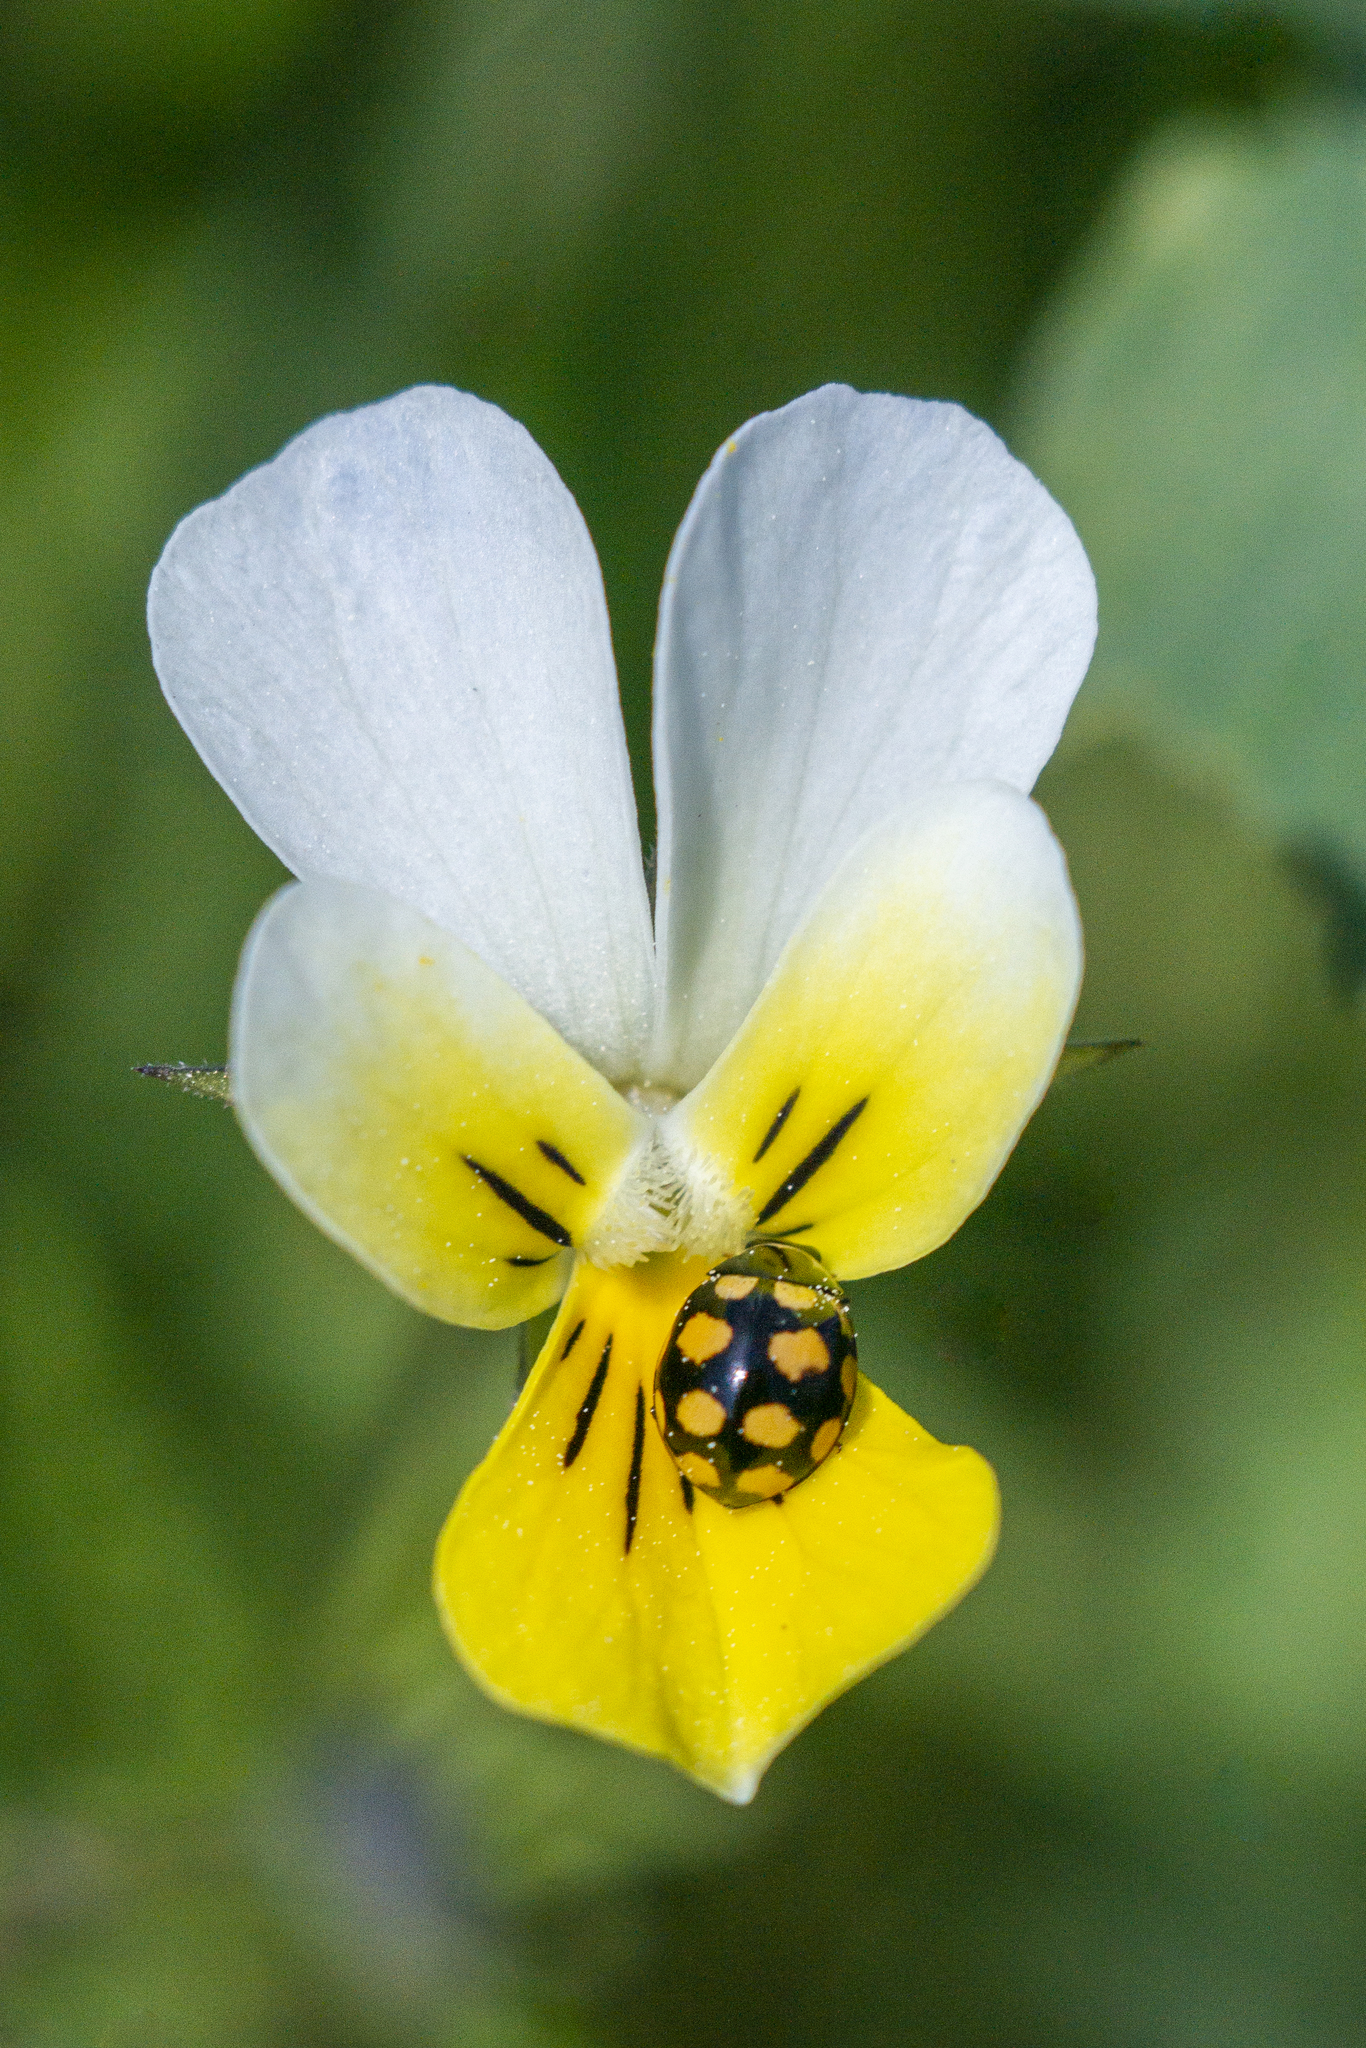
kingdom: Animalia
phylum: Arthropoda
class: Insecta
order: Coleoptera
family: Coccinellidae
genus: Coccinula
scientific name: Coccinula quatuordecimpustulata
